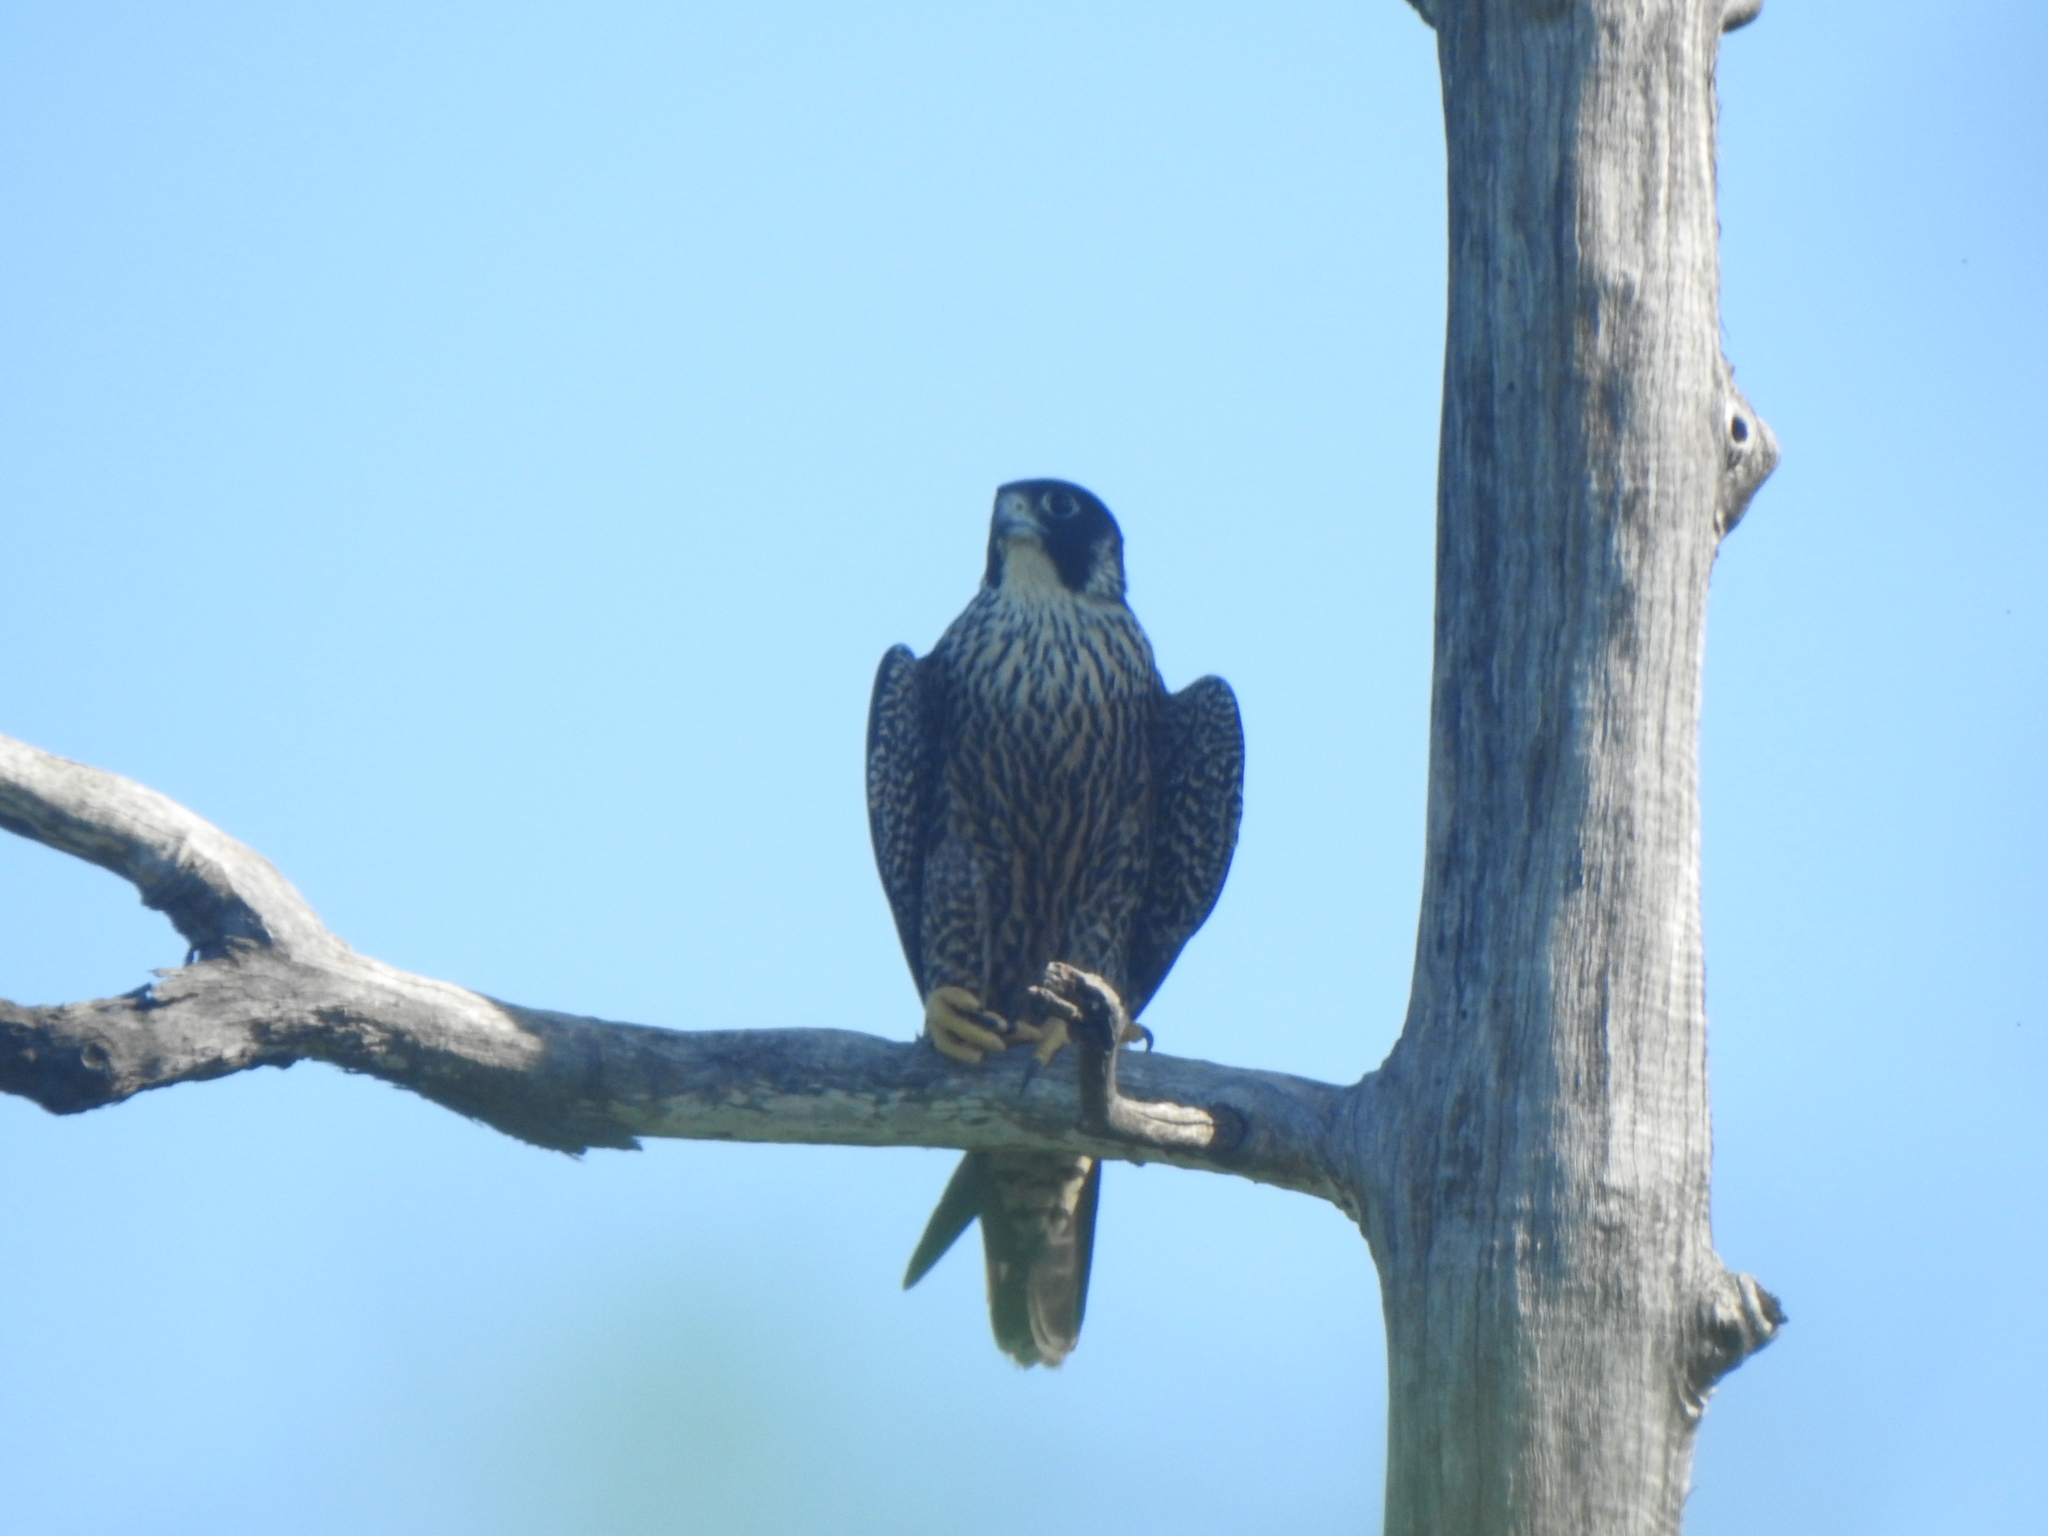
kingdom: Animalia
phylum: Chordata
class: Aves
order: Falconiformes
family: Falconidae
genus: Falco
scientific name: Falco peregrinus
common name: Peregrine falcon
